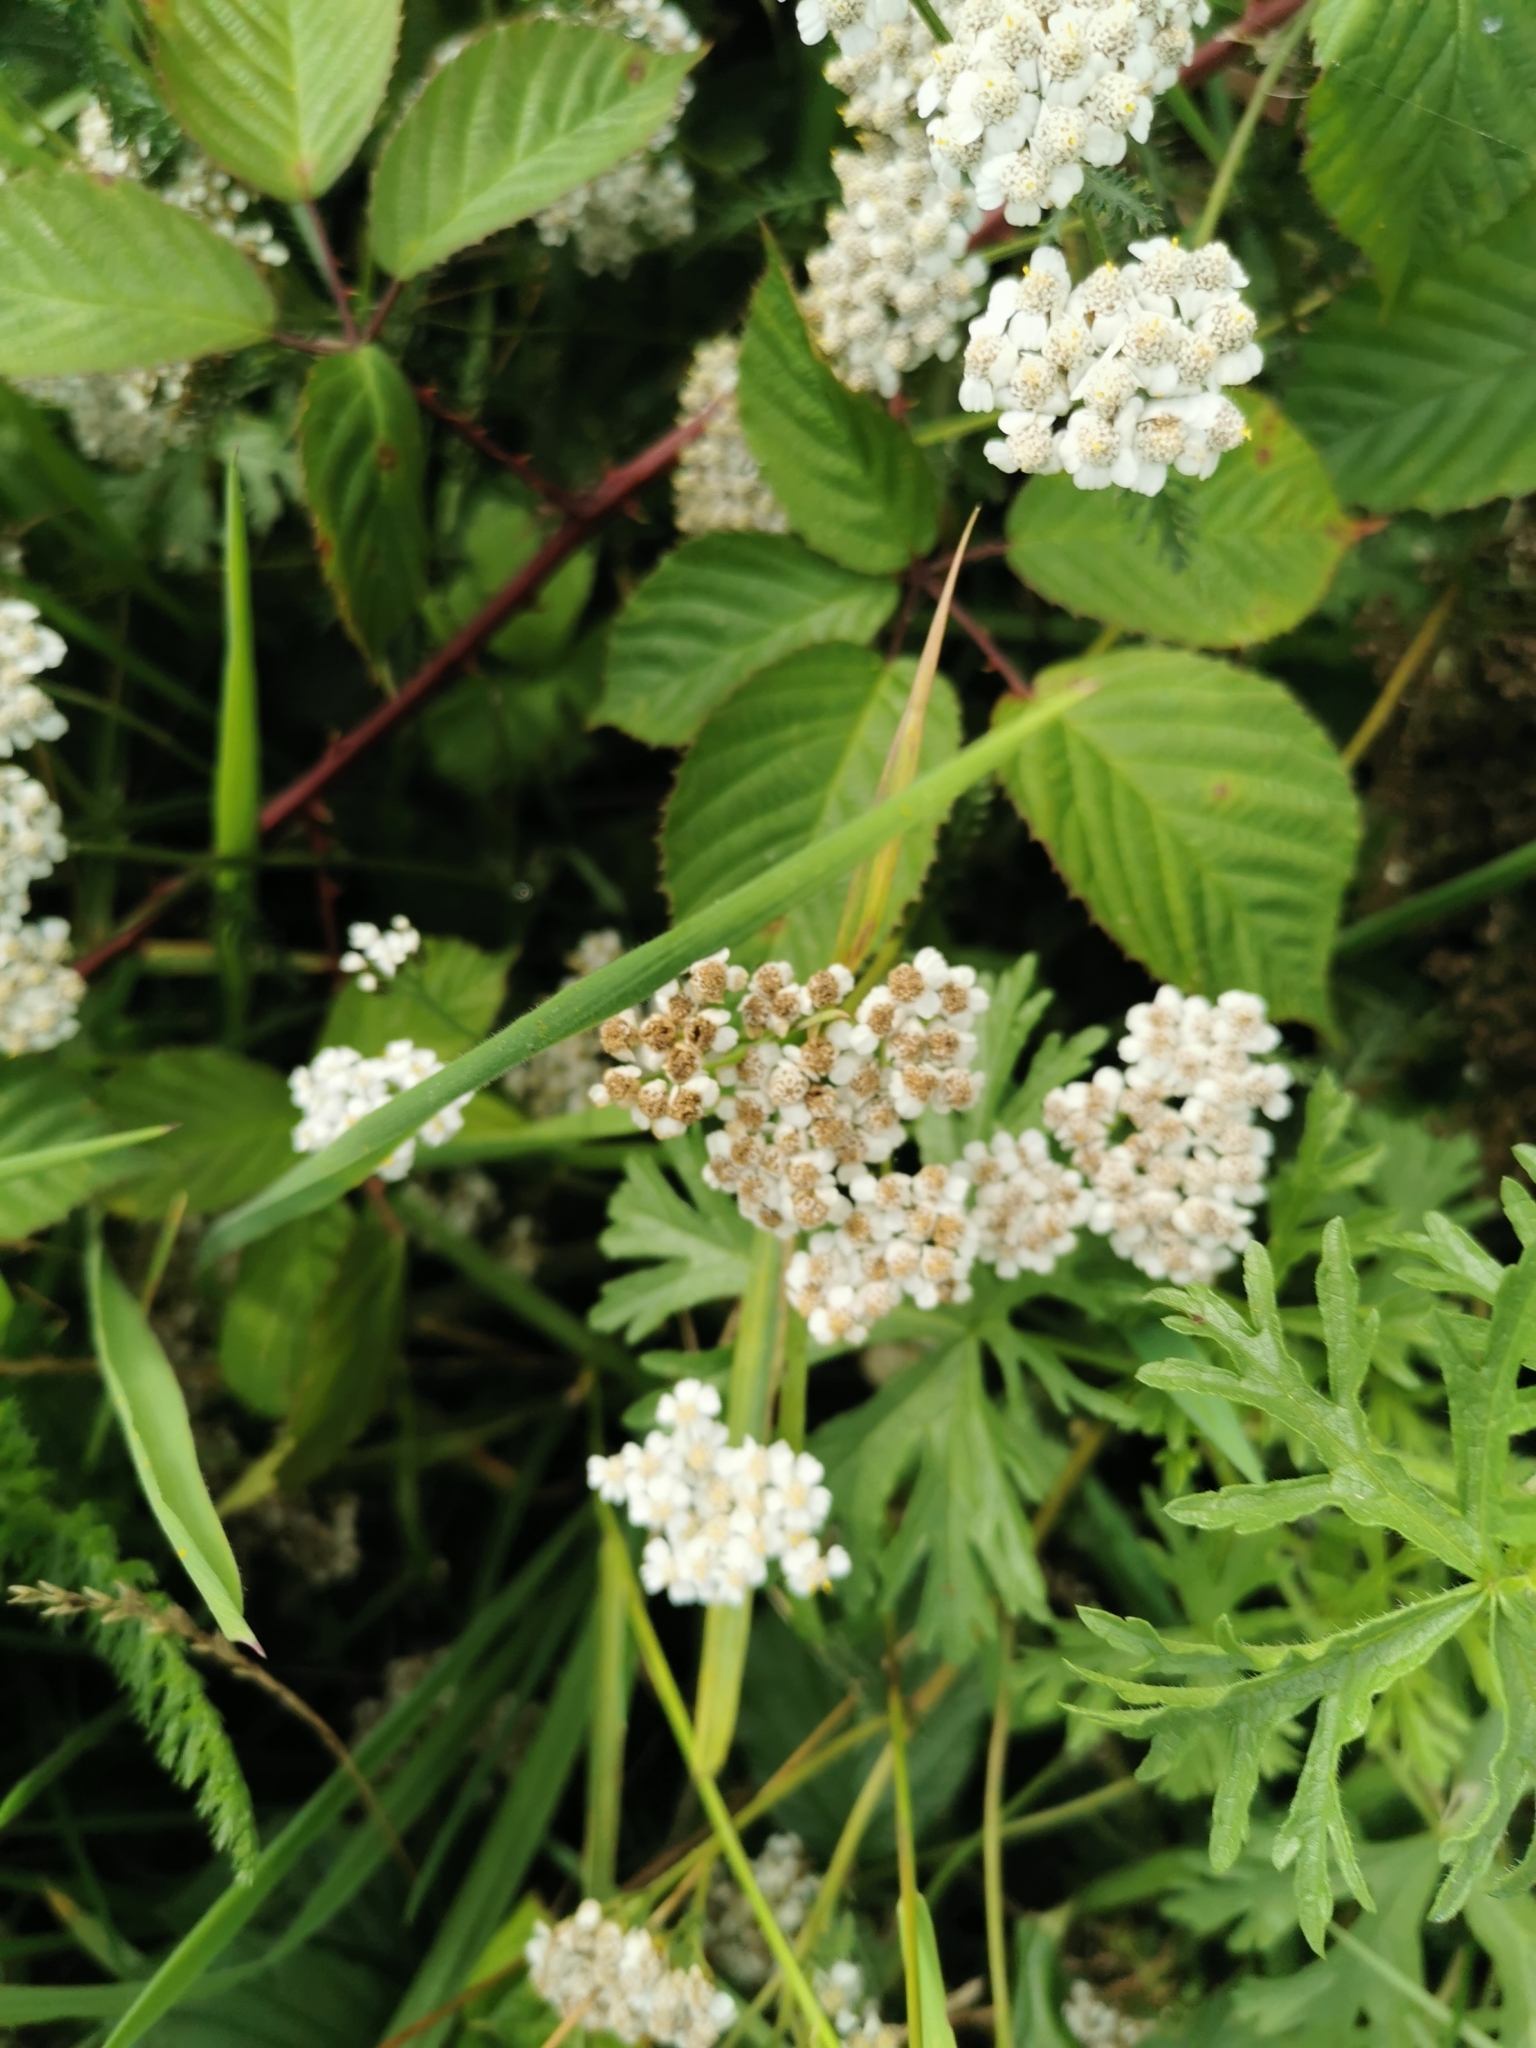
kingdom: Plantae
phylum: Tracheophyta
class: Magnoliopsida
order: Asterales
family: Asteraceae
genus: Achillea
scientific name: Achillea millefolium
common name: Yarrow
